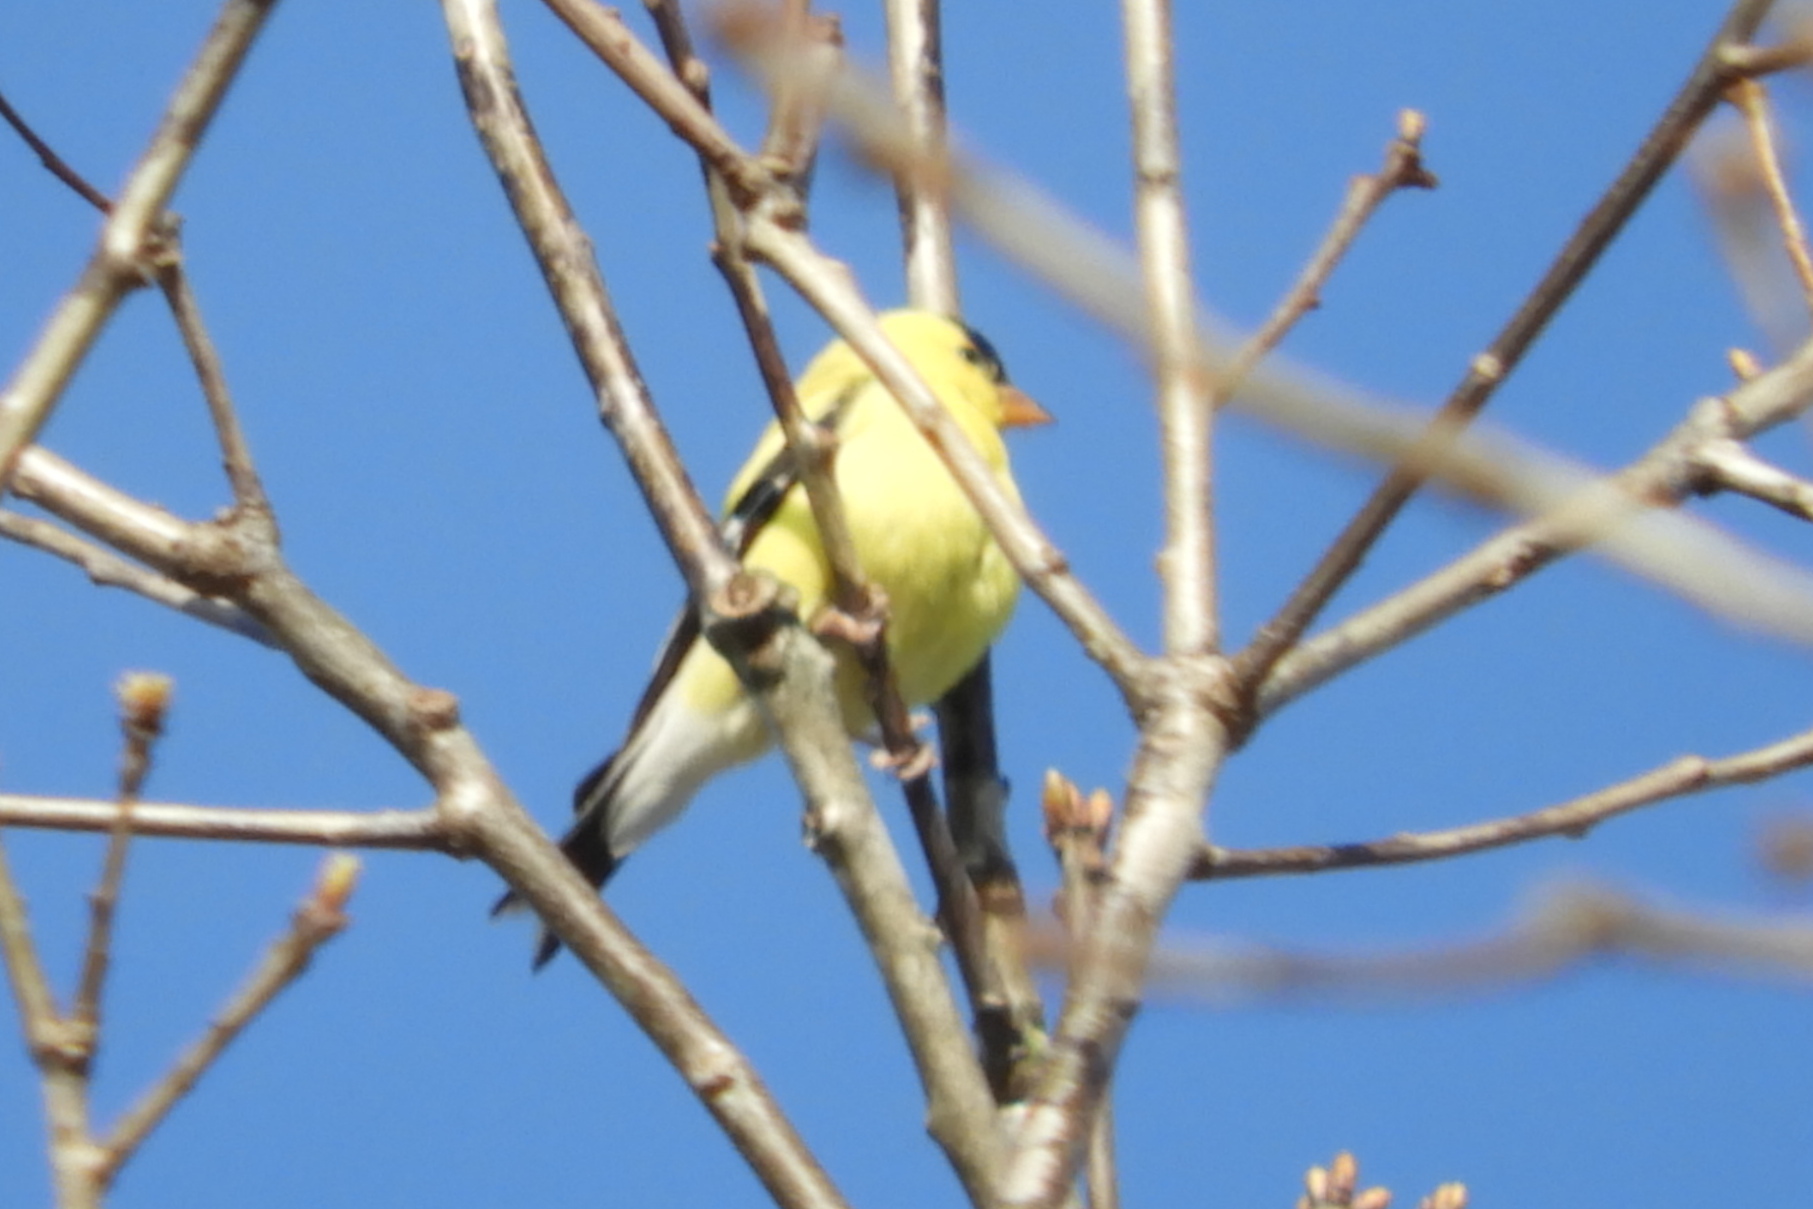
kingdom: Animalia
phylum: Chordata
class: Aves
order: Passeriformes
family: Fringillidae
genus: Spinus
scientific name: Spinus tristis
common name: American goldfinch
